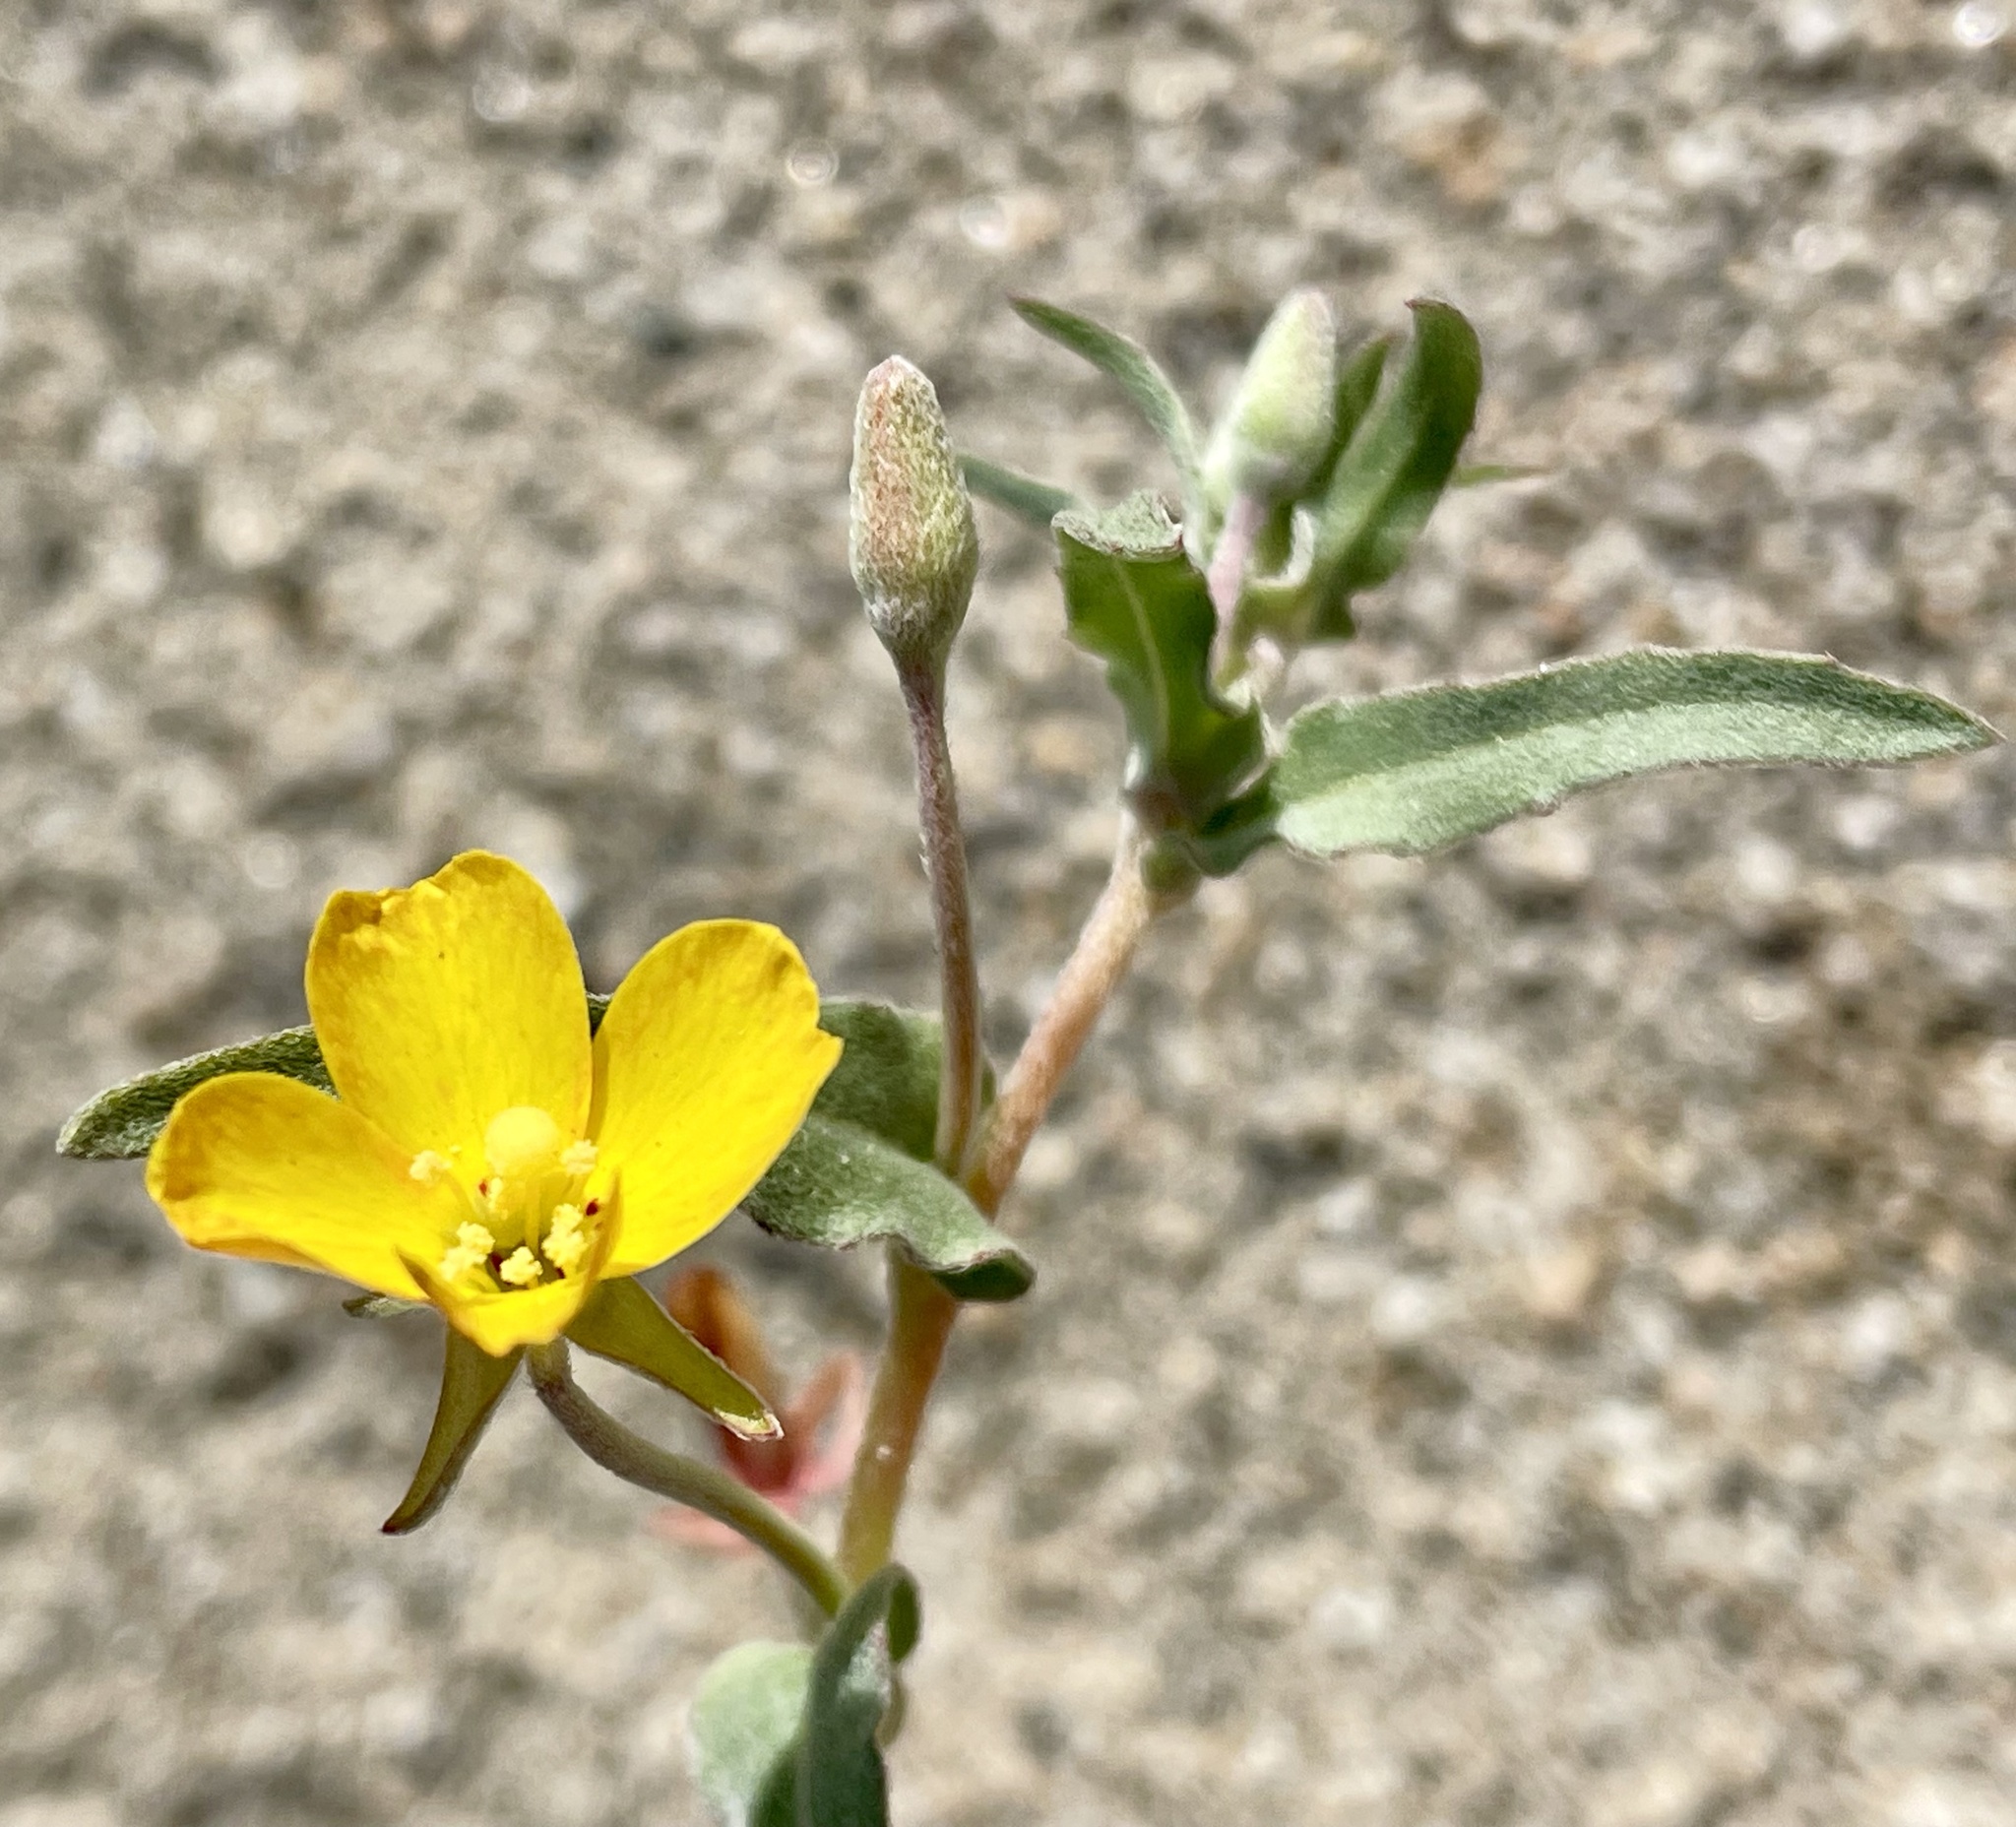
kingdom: Plantae
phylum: Tracheophyta
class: Magnoliopsida
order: Myrtales
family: Onagraceae
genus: Camissoniopsis
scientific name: Camissoniopsis pallida
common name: Paleyellow suncup
